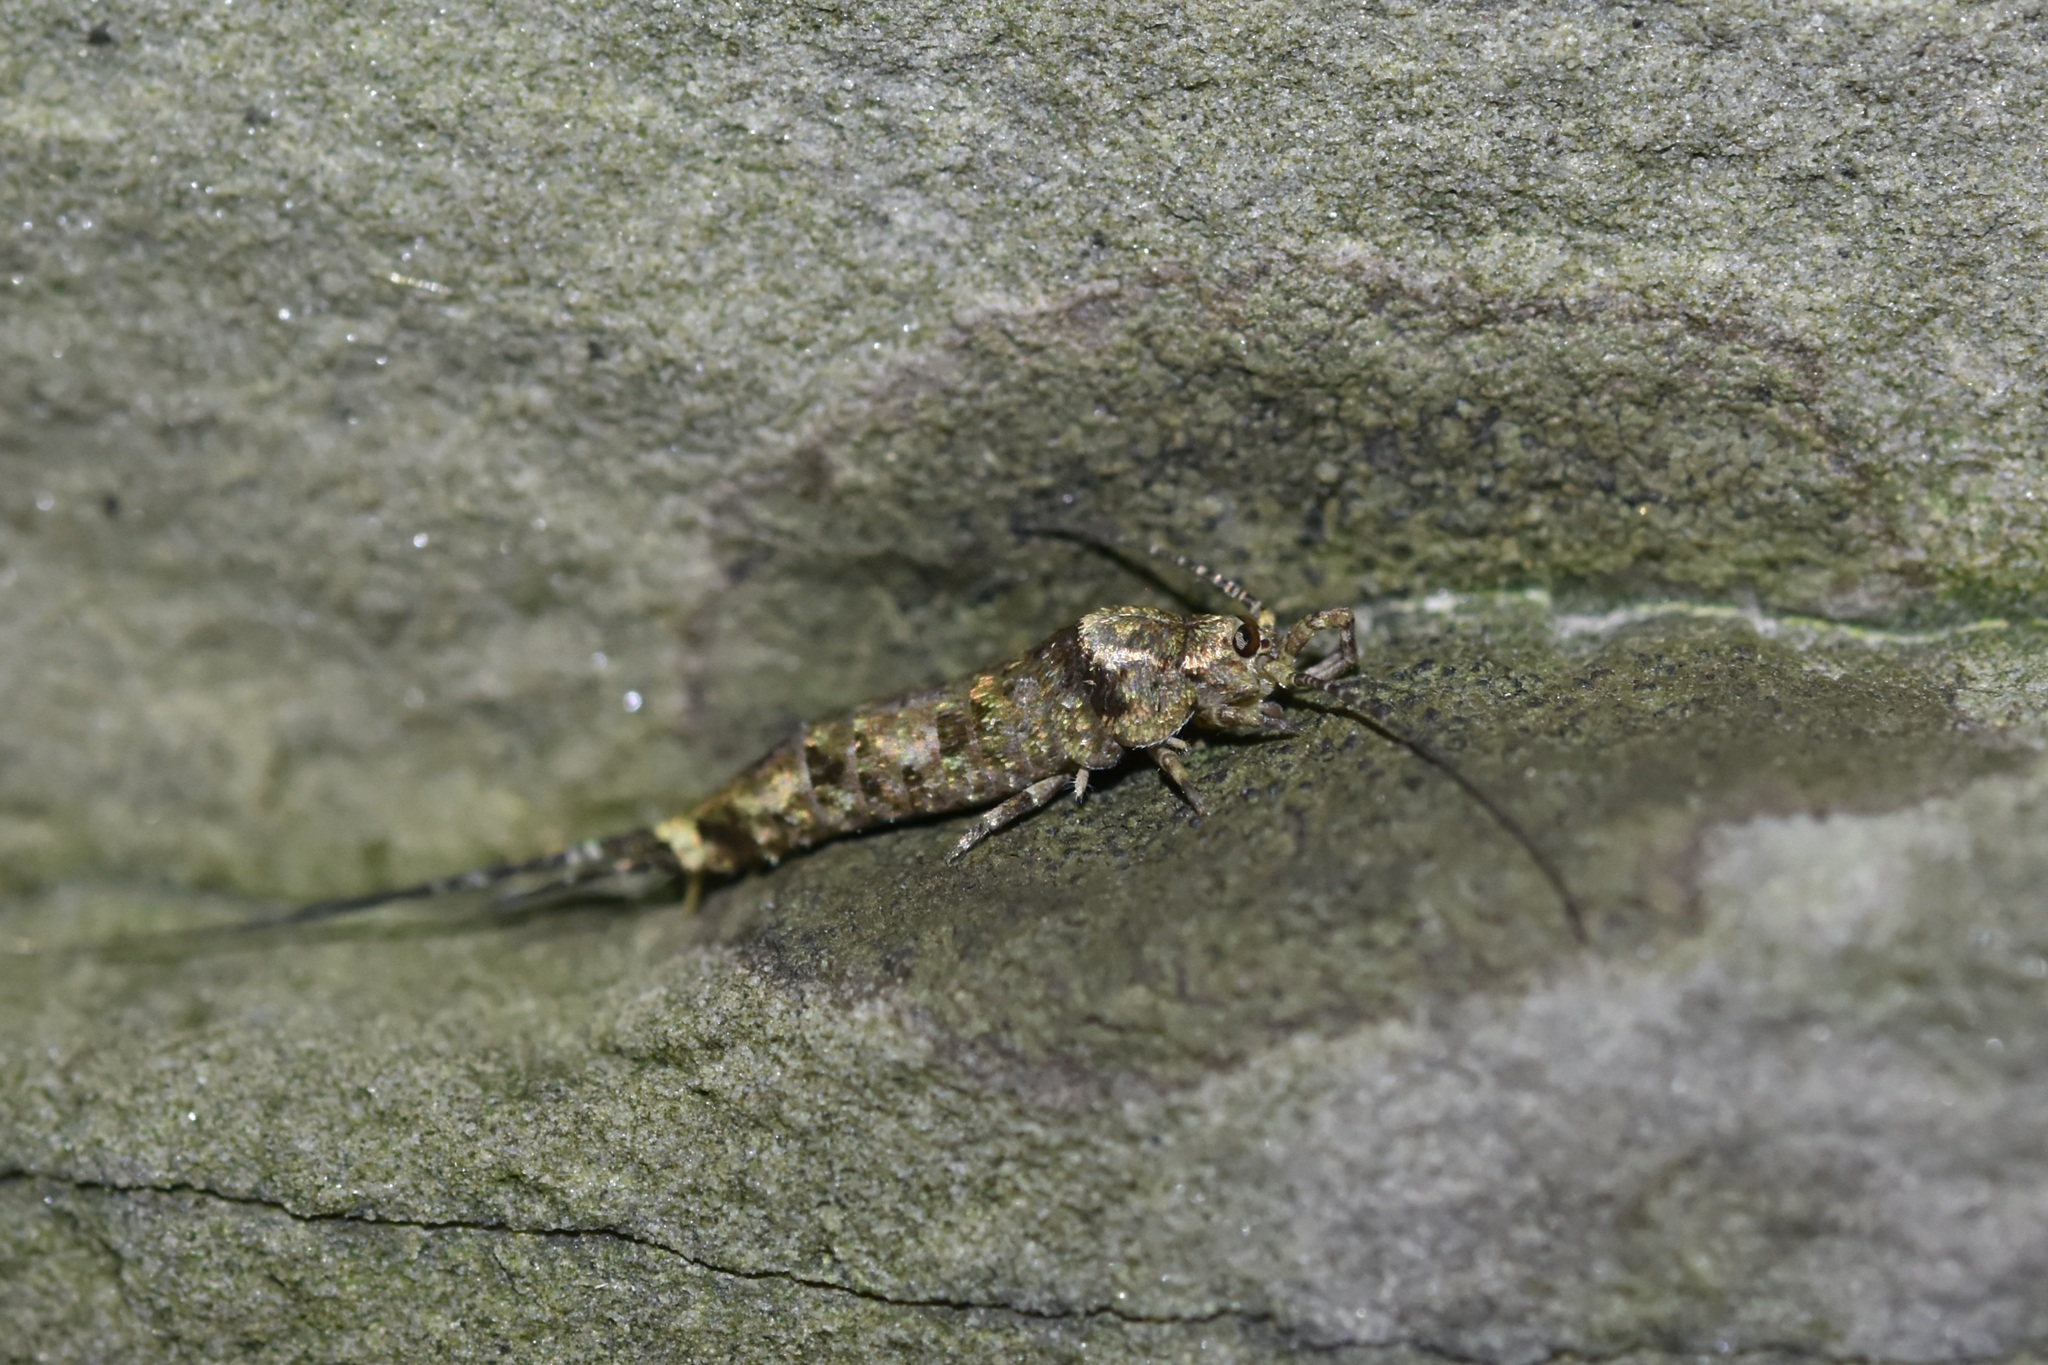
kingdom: Animalia
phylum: Arthropoda
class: Insecta
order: Archaeognatha
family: Machilidae
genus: Trigoniophthalmus
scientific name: Trigoniophthalmus alternatus
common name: Jumping bristletail
